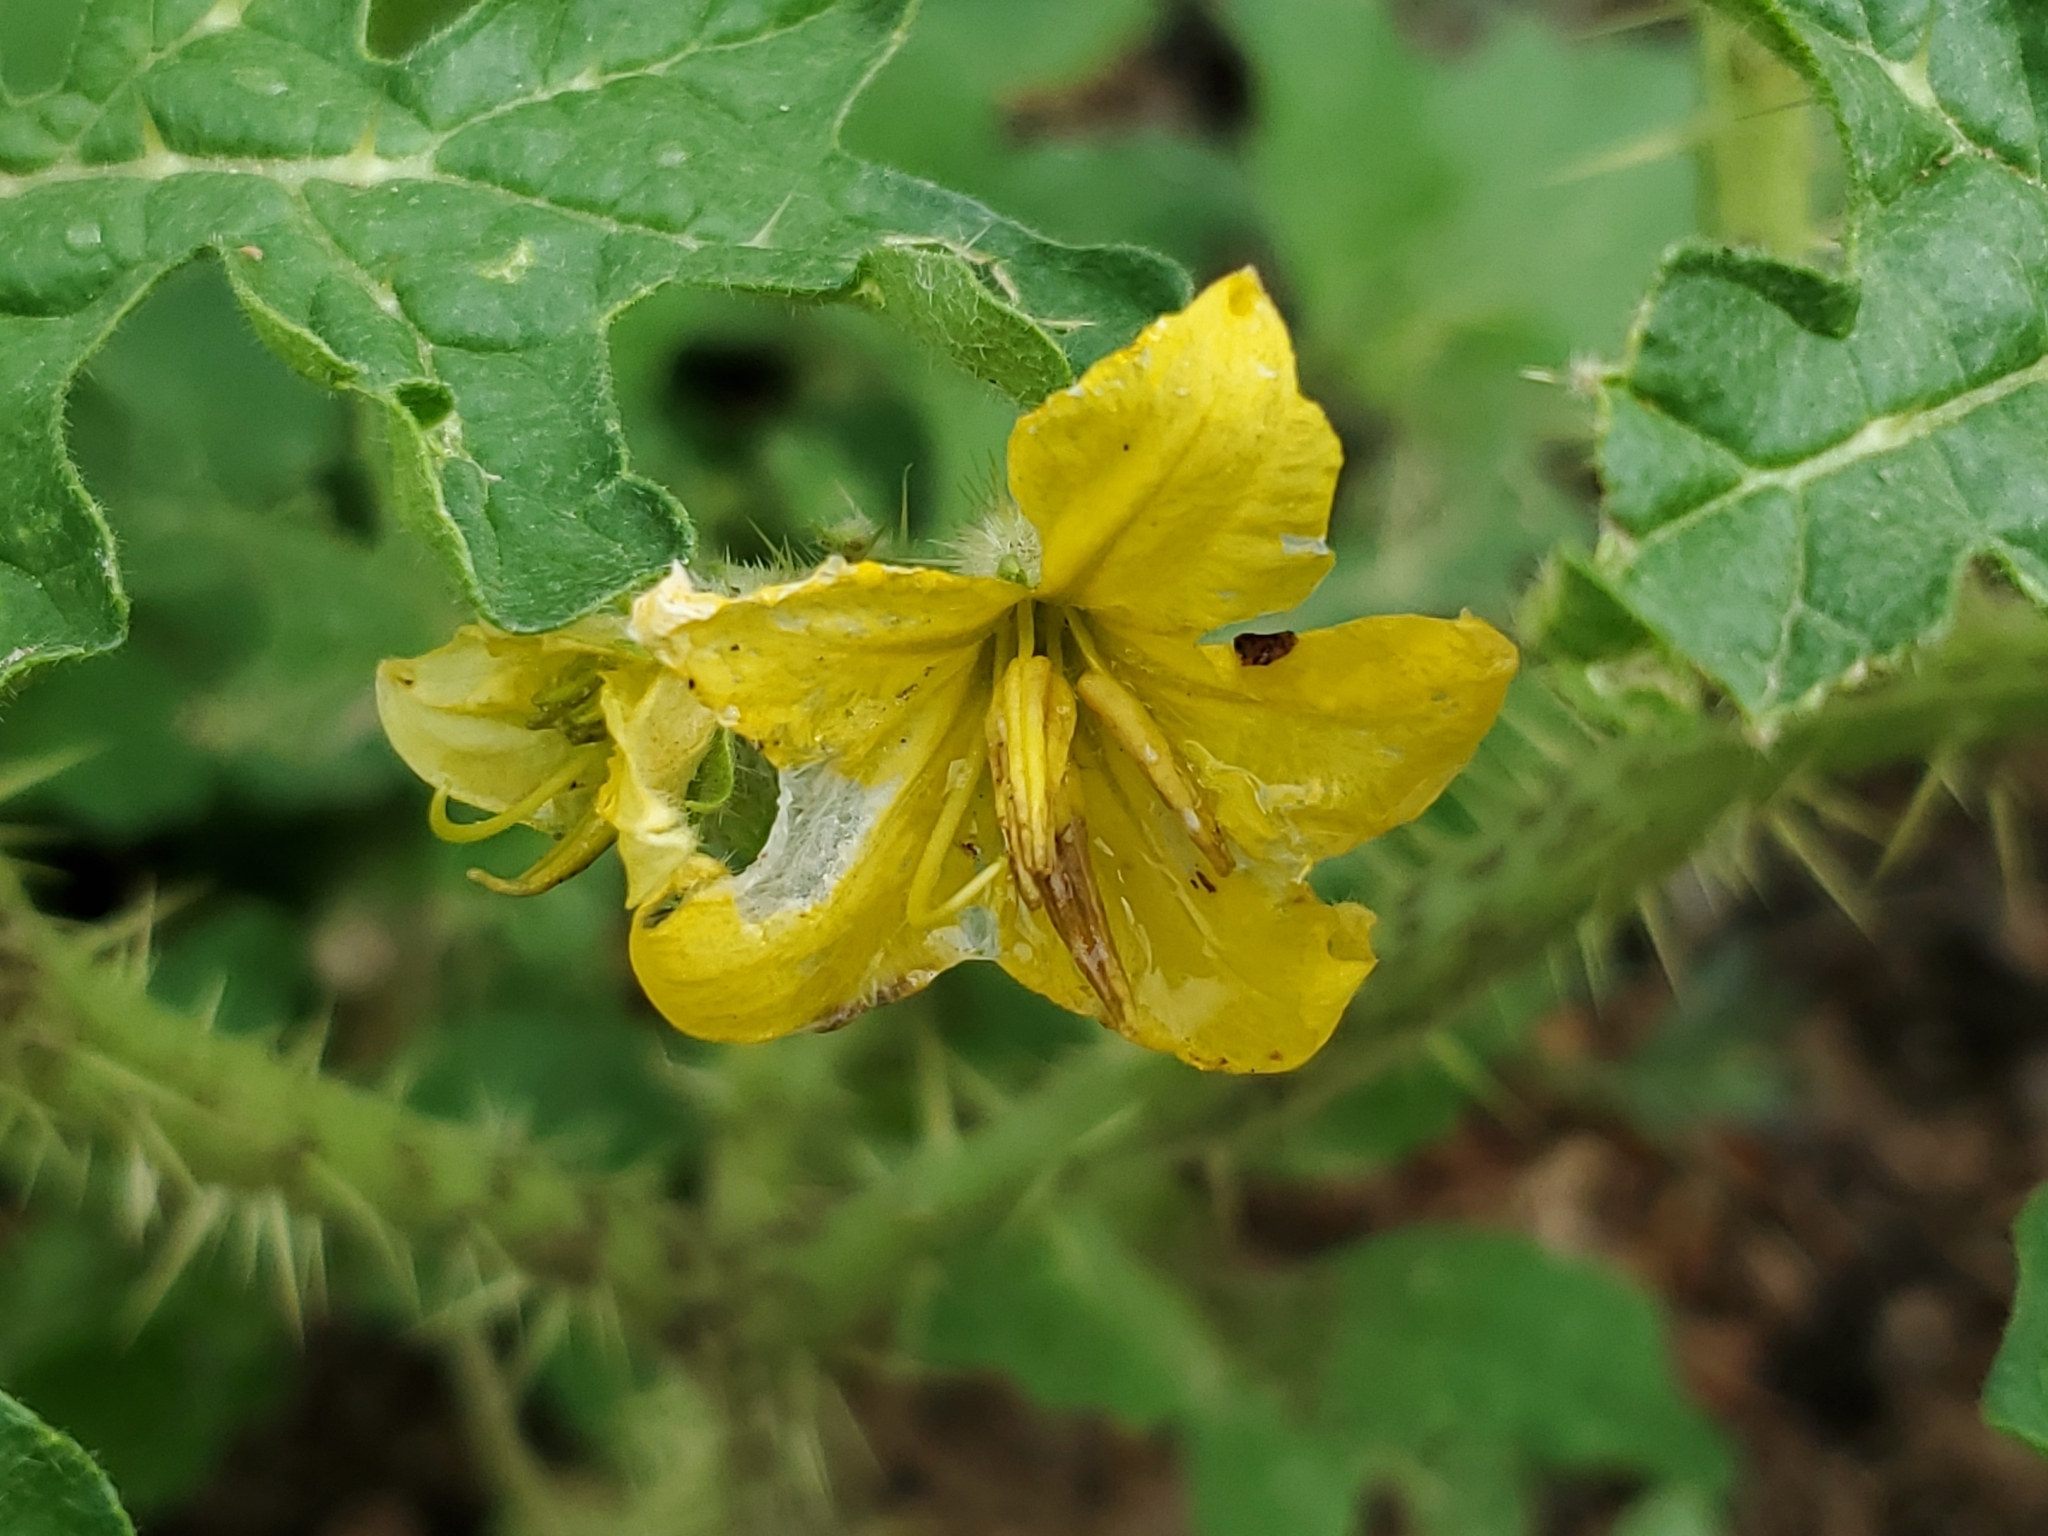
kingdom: Plantae
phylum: Tracheophyta
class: Magnoliopsida
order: Solanales
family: Solanaceae
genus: Solanum
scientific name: Solanum angustifolium
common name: Buffalobur nightshade
